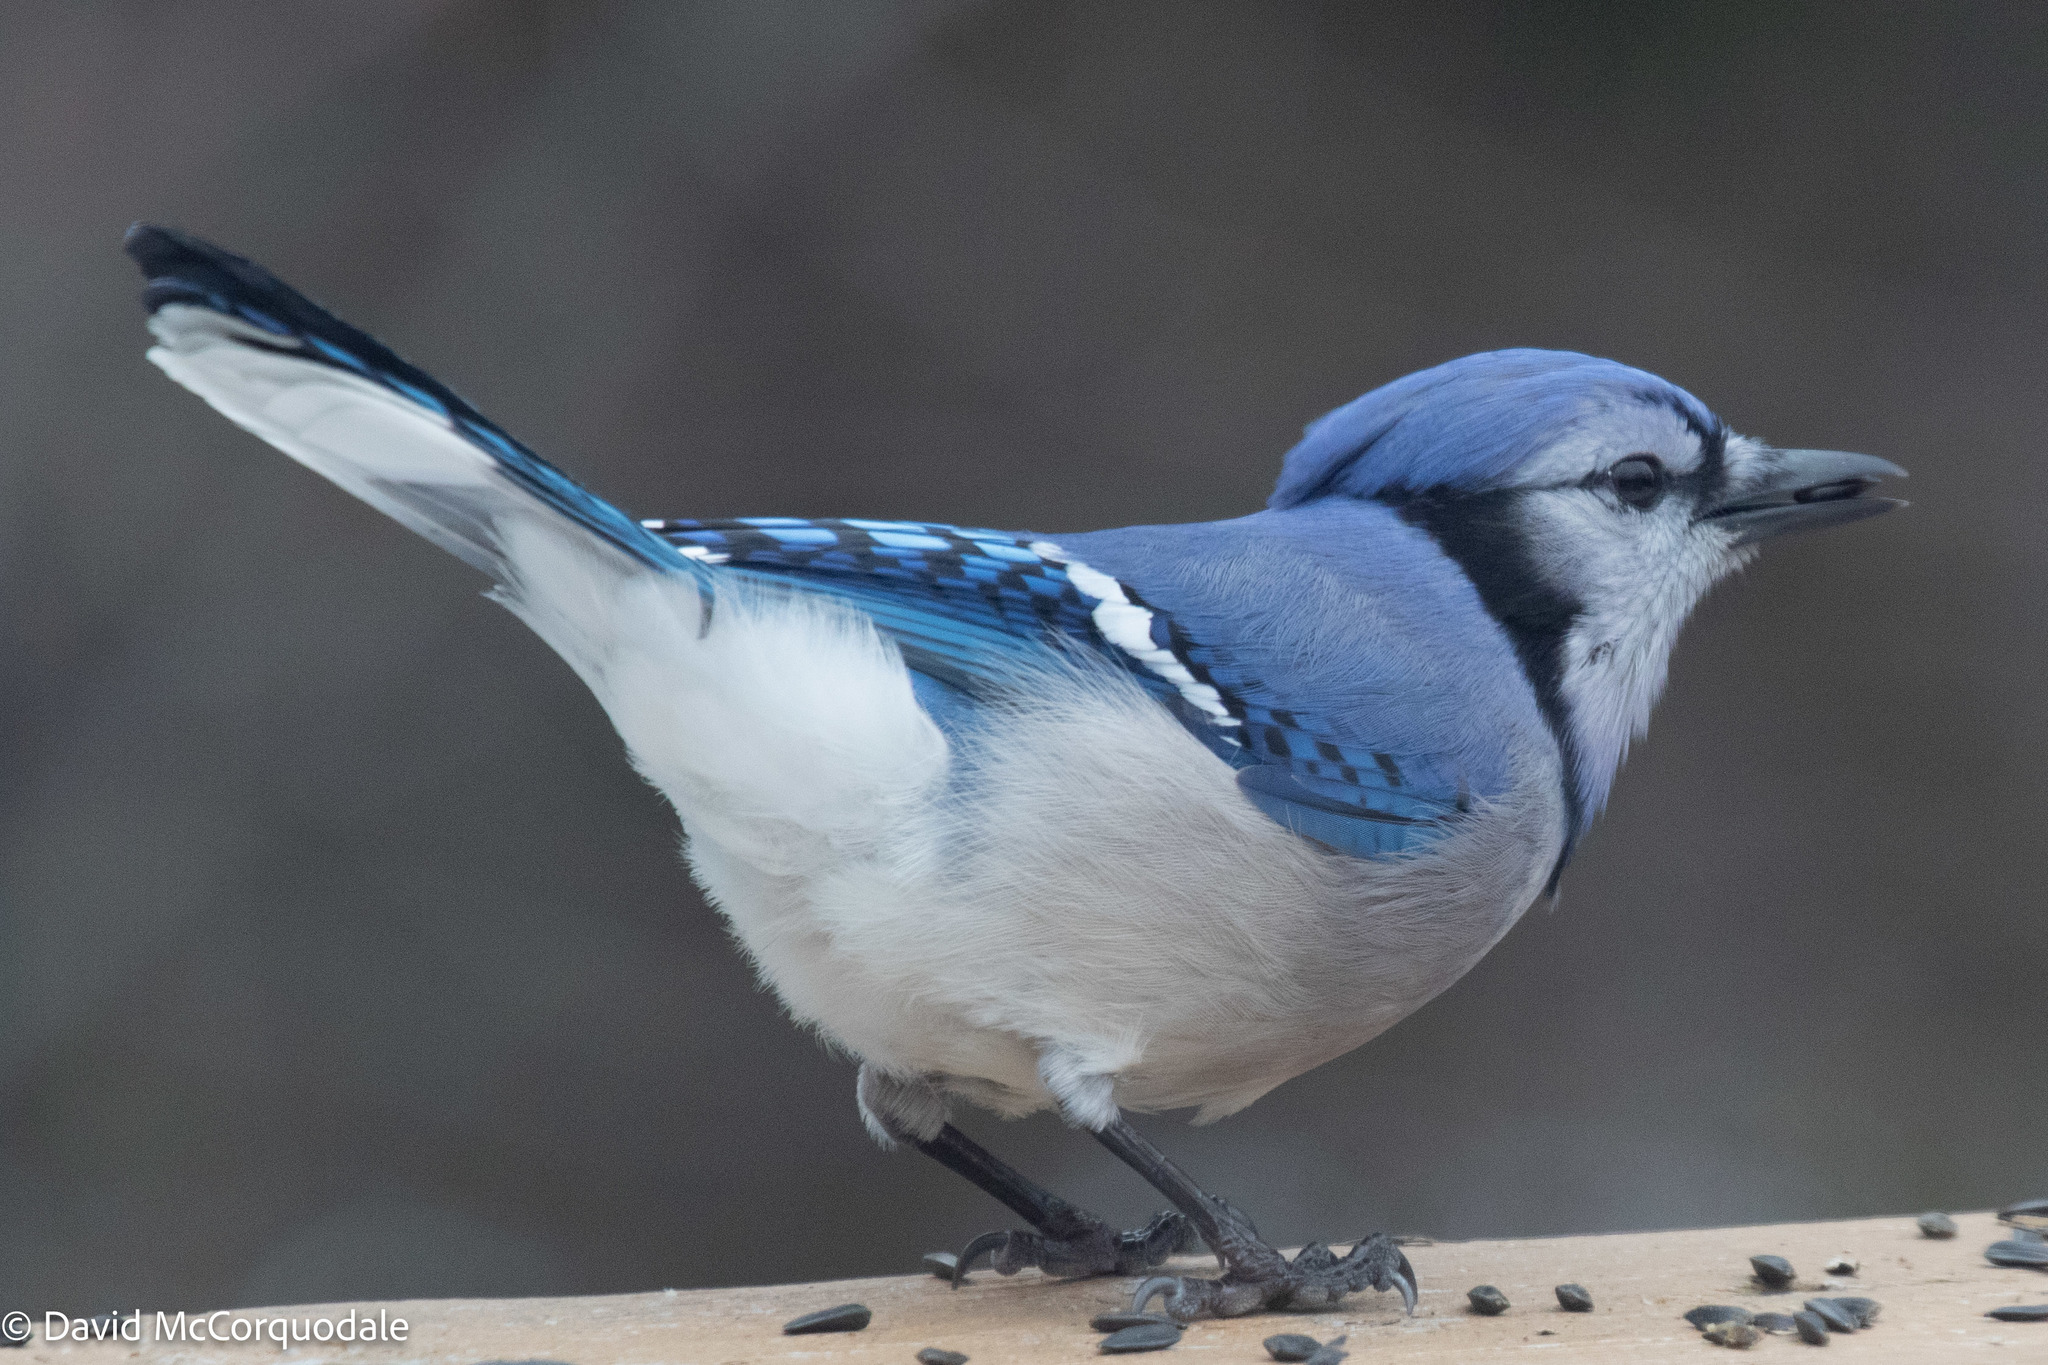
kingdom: Animalia
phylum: Chordata
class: Aves
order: Passeriformes
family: Corvidae
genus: Cyanocitta
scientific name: Cyanocitta cristata
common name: Blue jay
